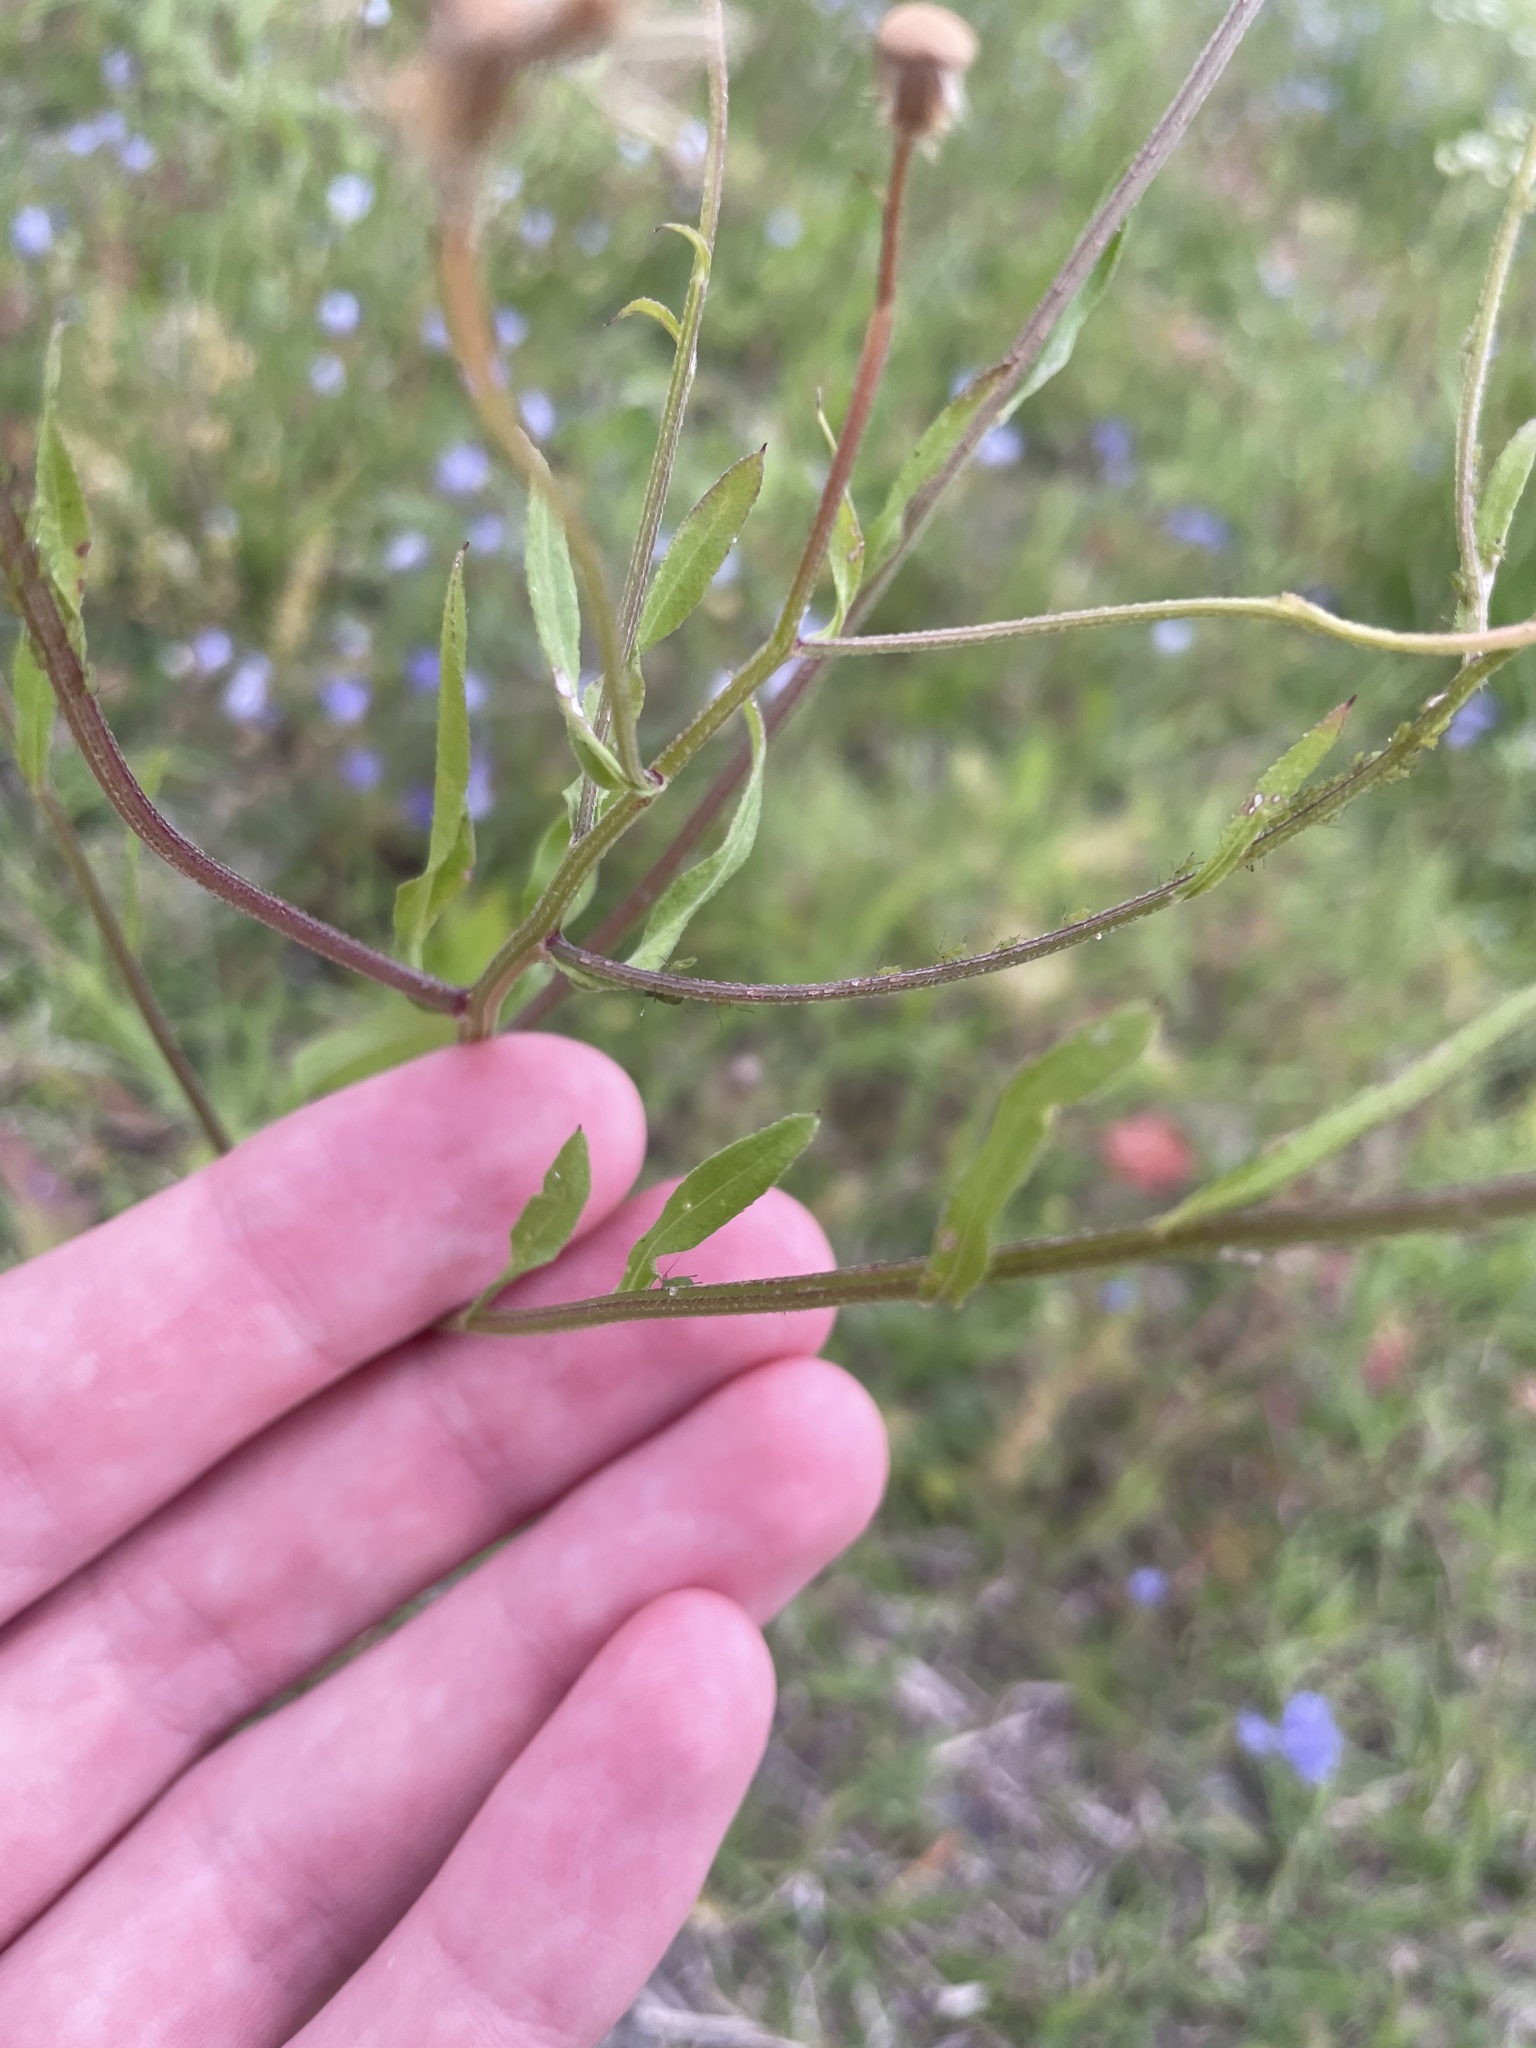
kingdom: Plantae
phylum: Tracheophyta
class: Magnoliopsida
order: Asterales
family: Asteraceae
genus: Erigeron
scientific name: Erigeron strigosus
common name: Common eastern fleabane
